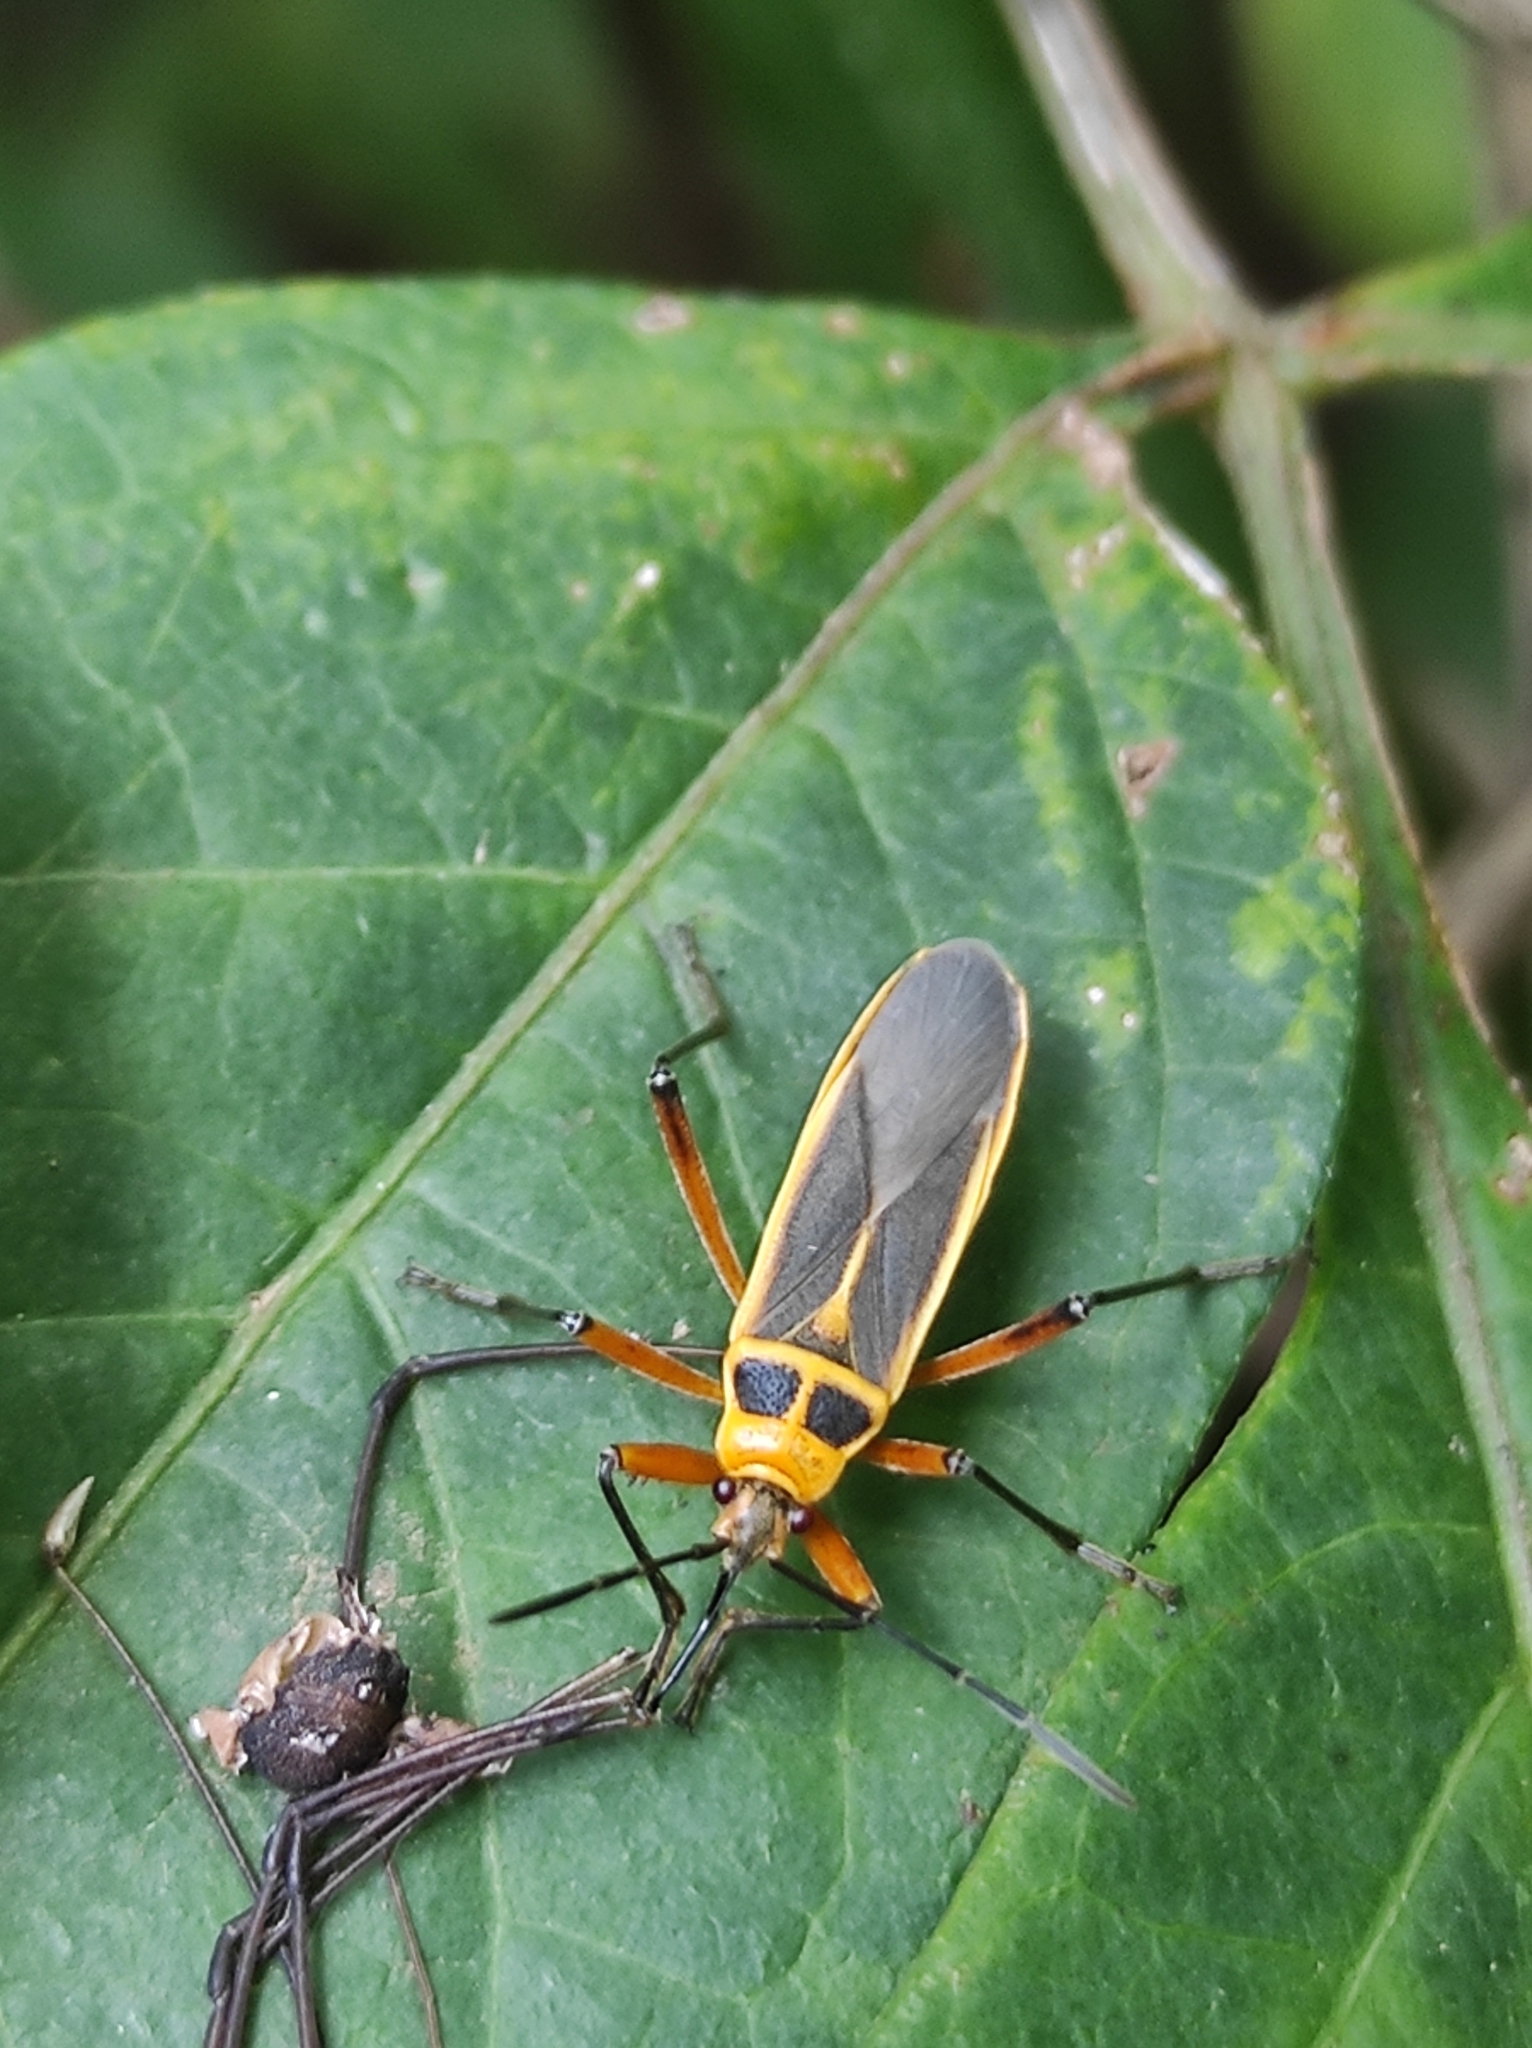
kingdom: Animalia
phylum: Arthropoda
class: Insecta
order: Hemiptera
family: Largidae
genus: Stenomacra
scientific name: Stenomacra marginella
